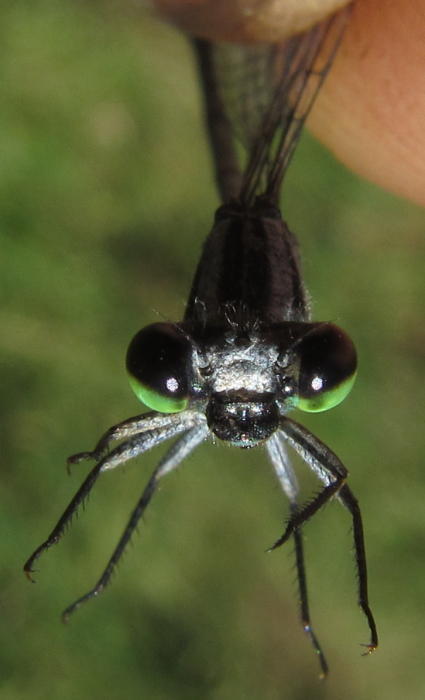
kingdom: Animalia
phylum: Arthropoda
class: Insecta
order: Odonata
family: Coenagrionidae
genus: Pseudagrion
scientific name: Pseudagrion kersteni
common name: Powder-faced sprite
